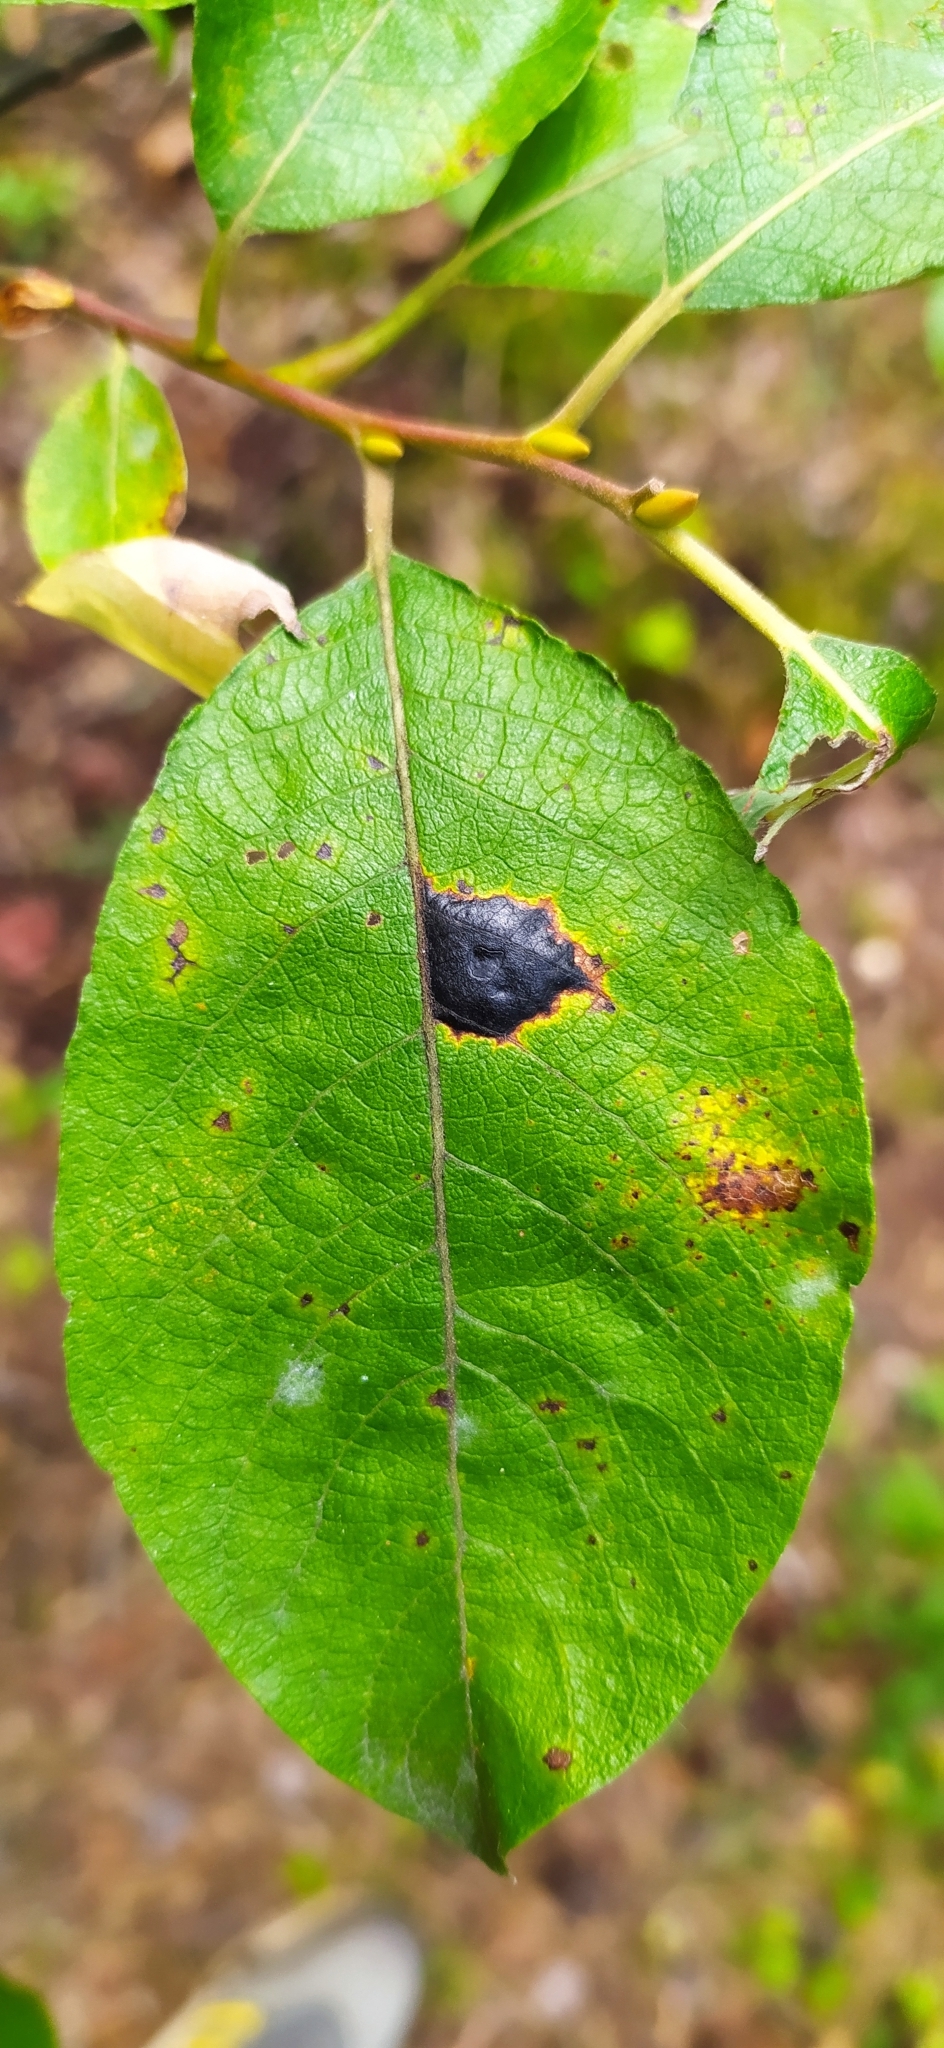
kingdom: Fungi
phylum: Ascomycota
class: Leotiomycetes
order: Rhytismatales
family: Rhytismataceae
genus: Rhytisma
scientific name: Rhytisma salicinum
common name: Willow tarspot
